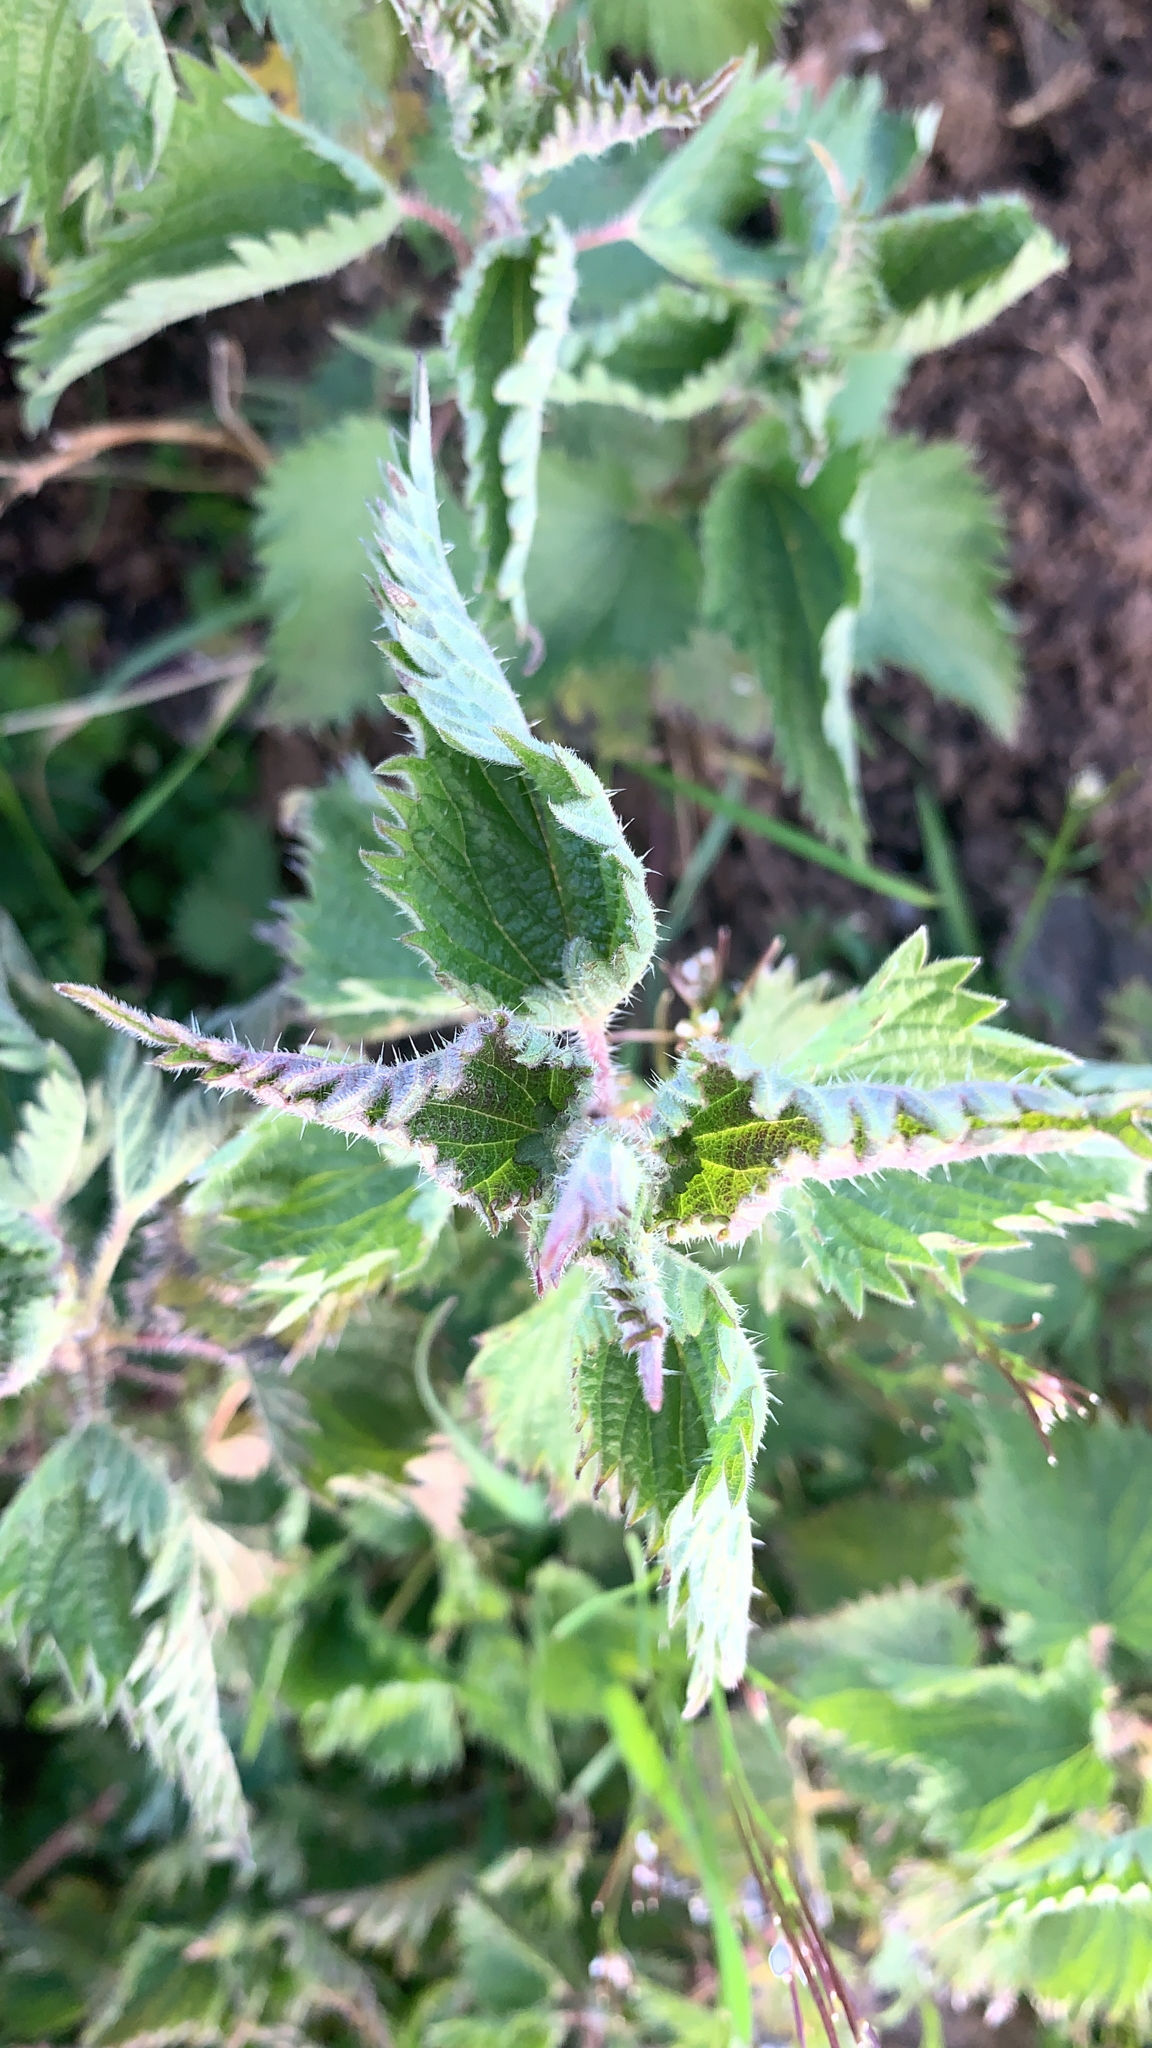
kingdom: Plantae
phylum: Tracheophyta
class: Magnoliopsida
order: Rosales
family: Urticaceae
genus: Urtica
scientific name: Urtica dioica
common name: Common nettle
